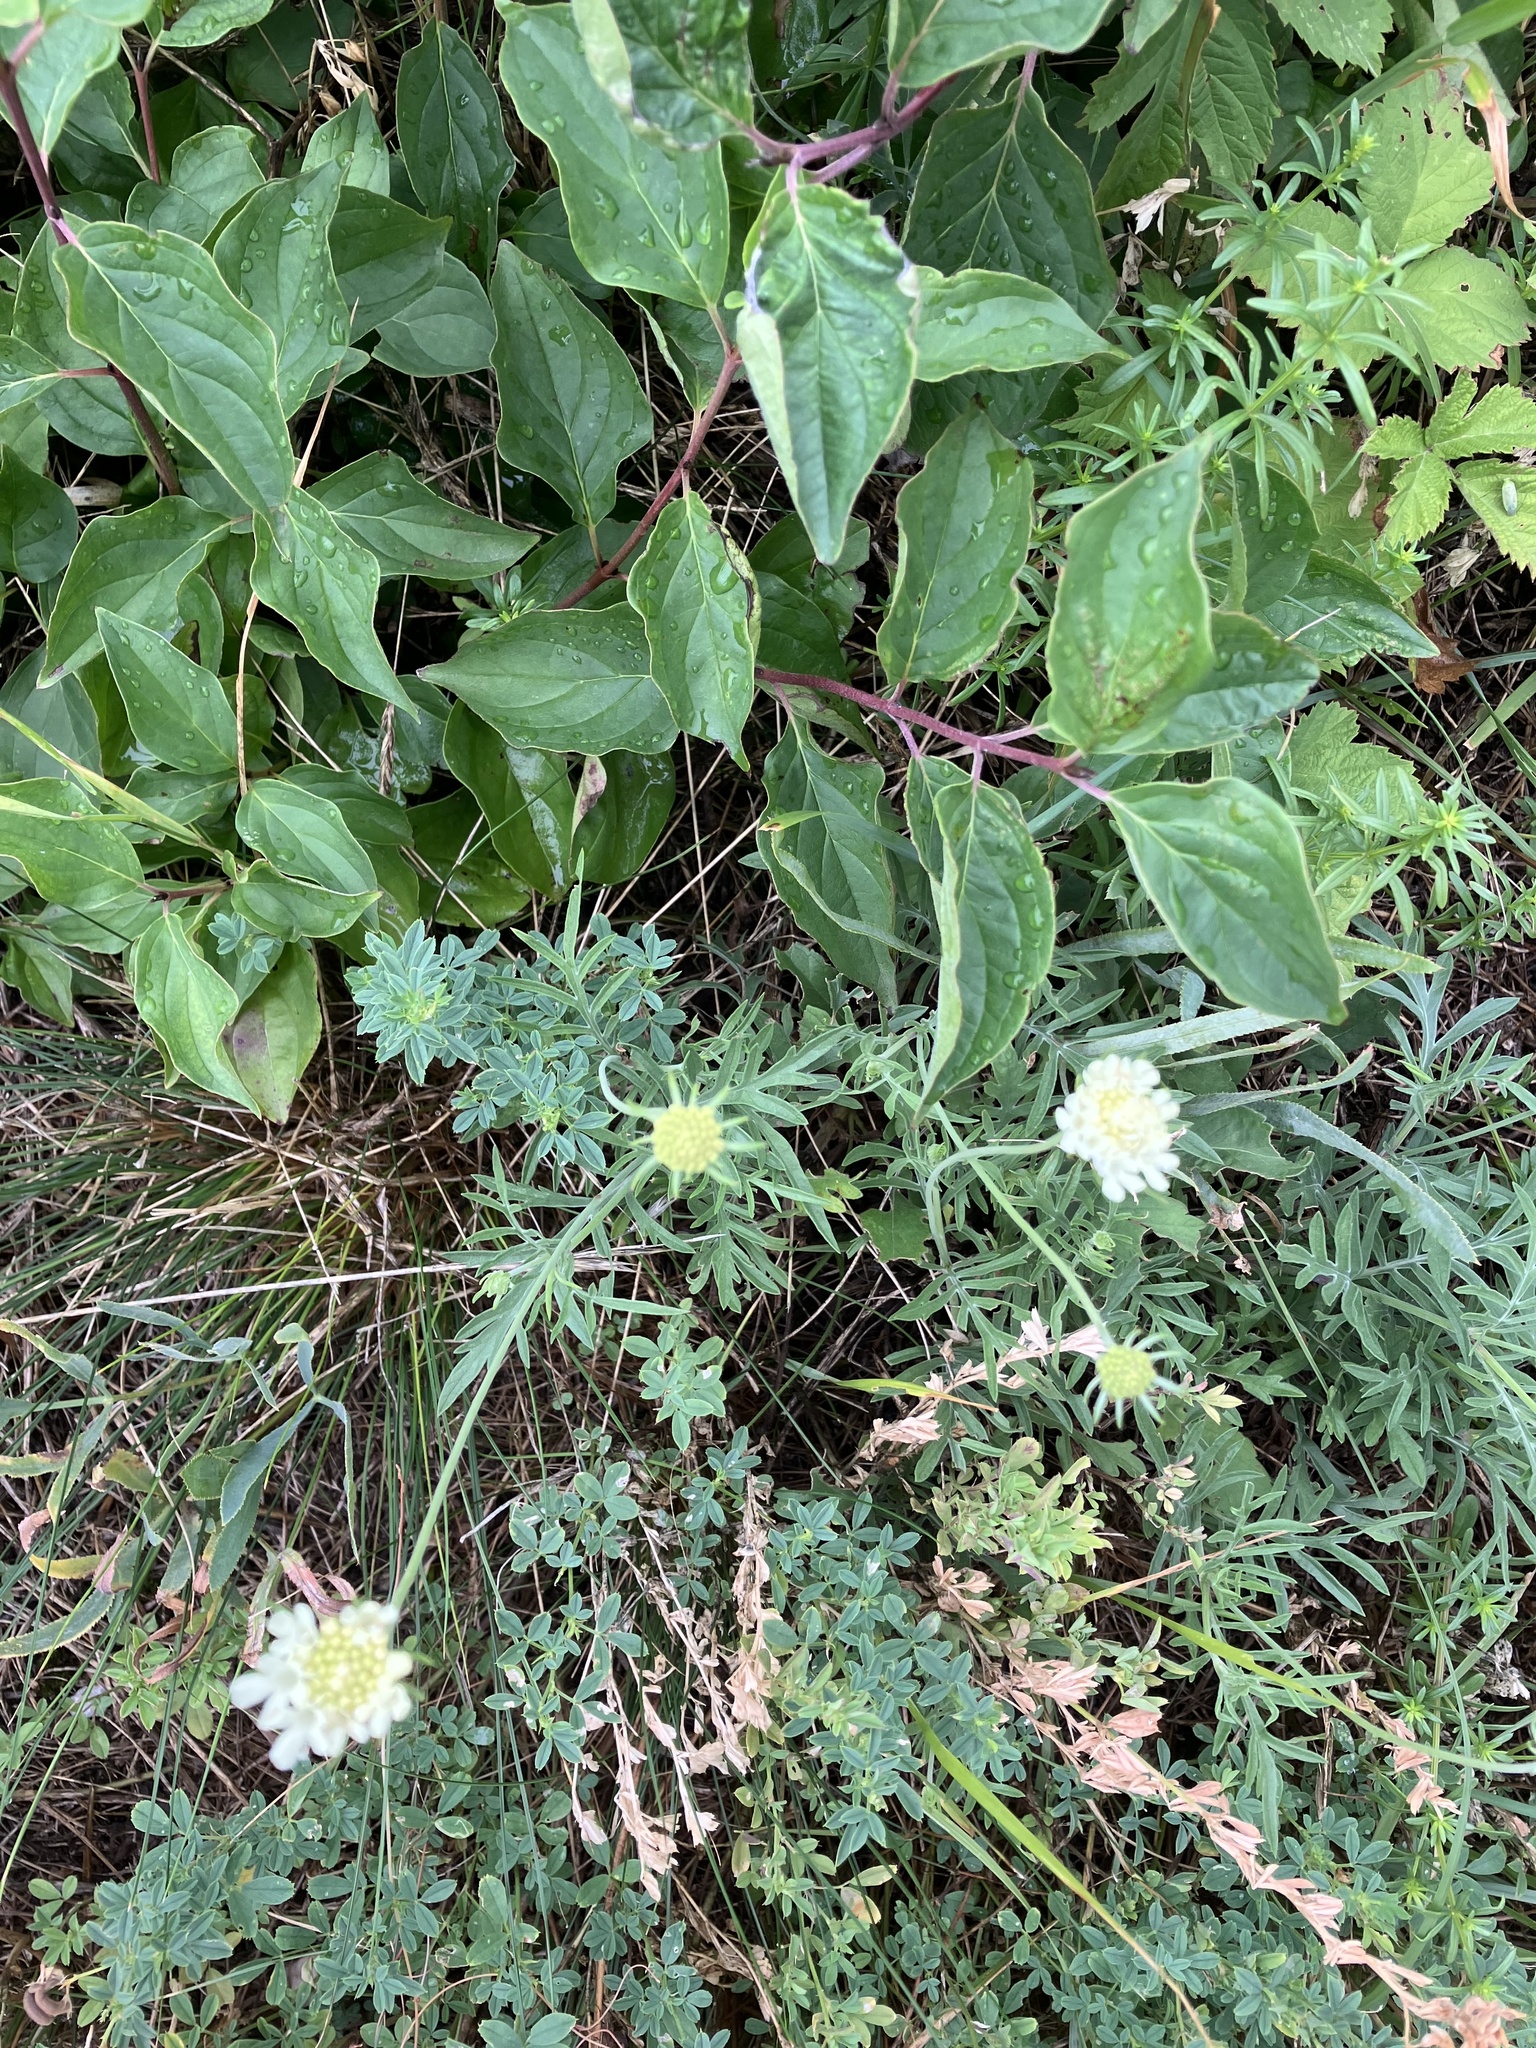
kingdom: Plantae
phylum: Tracheophyta
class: Magnoliopsida
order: Dipsacales
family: Caprifoliaceae
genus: Scabiosa
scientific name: Scabiosa ochroleuca
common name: Cream pincushions
